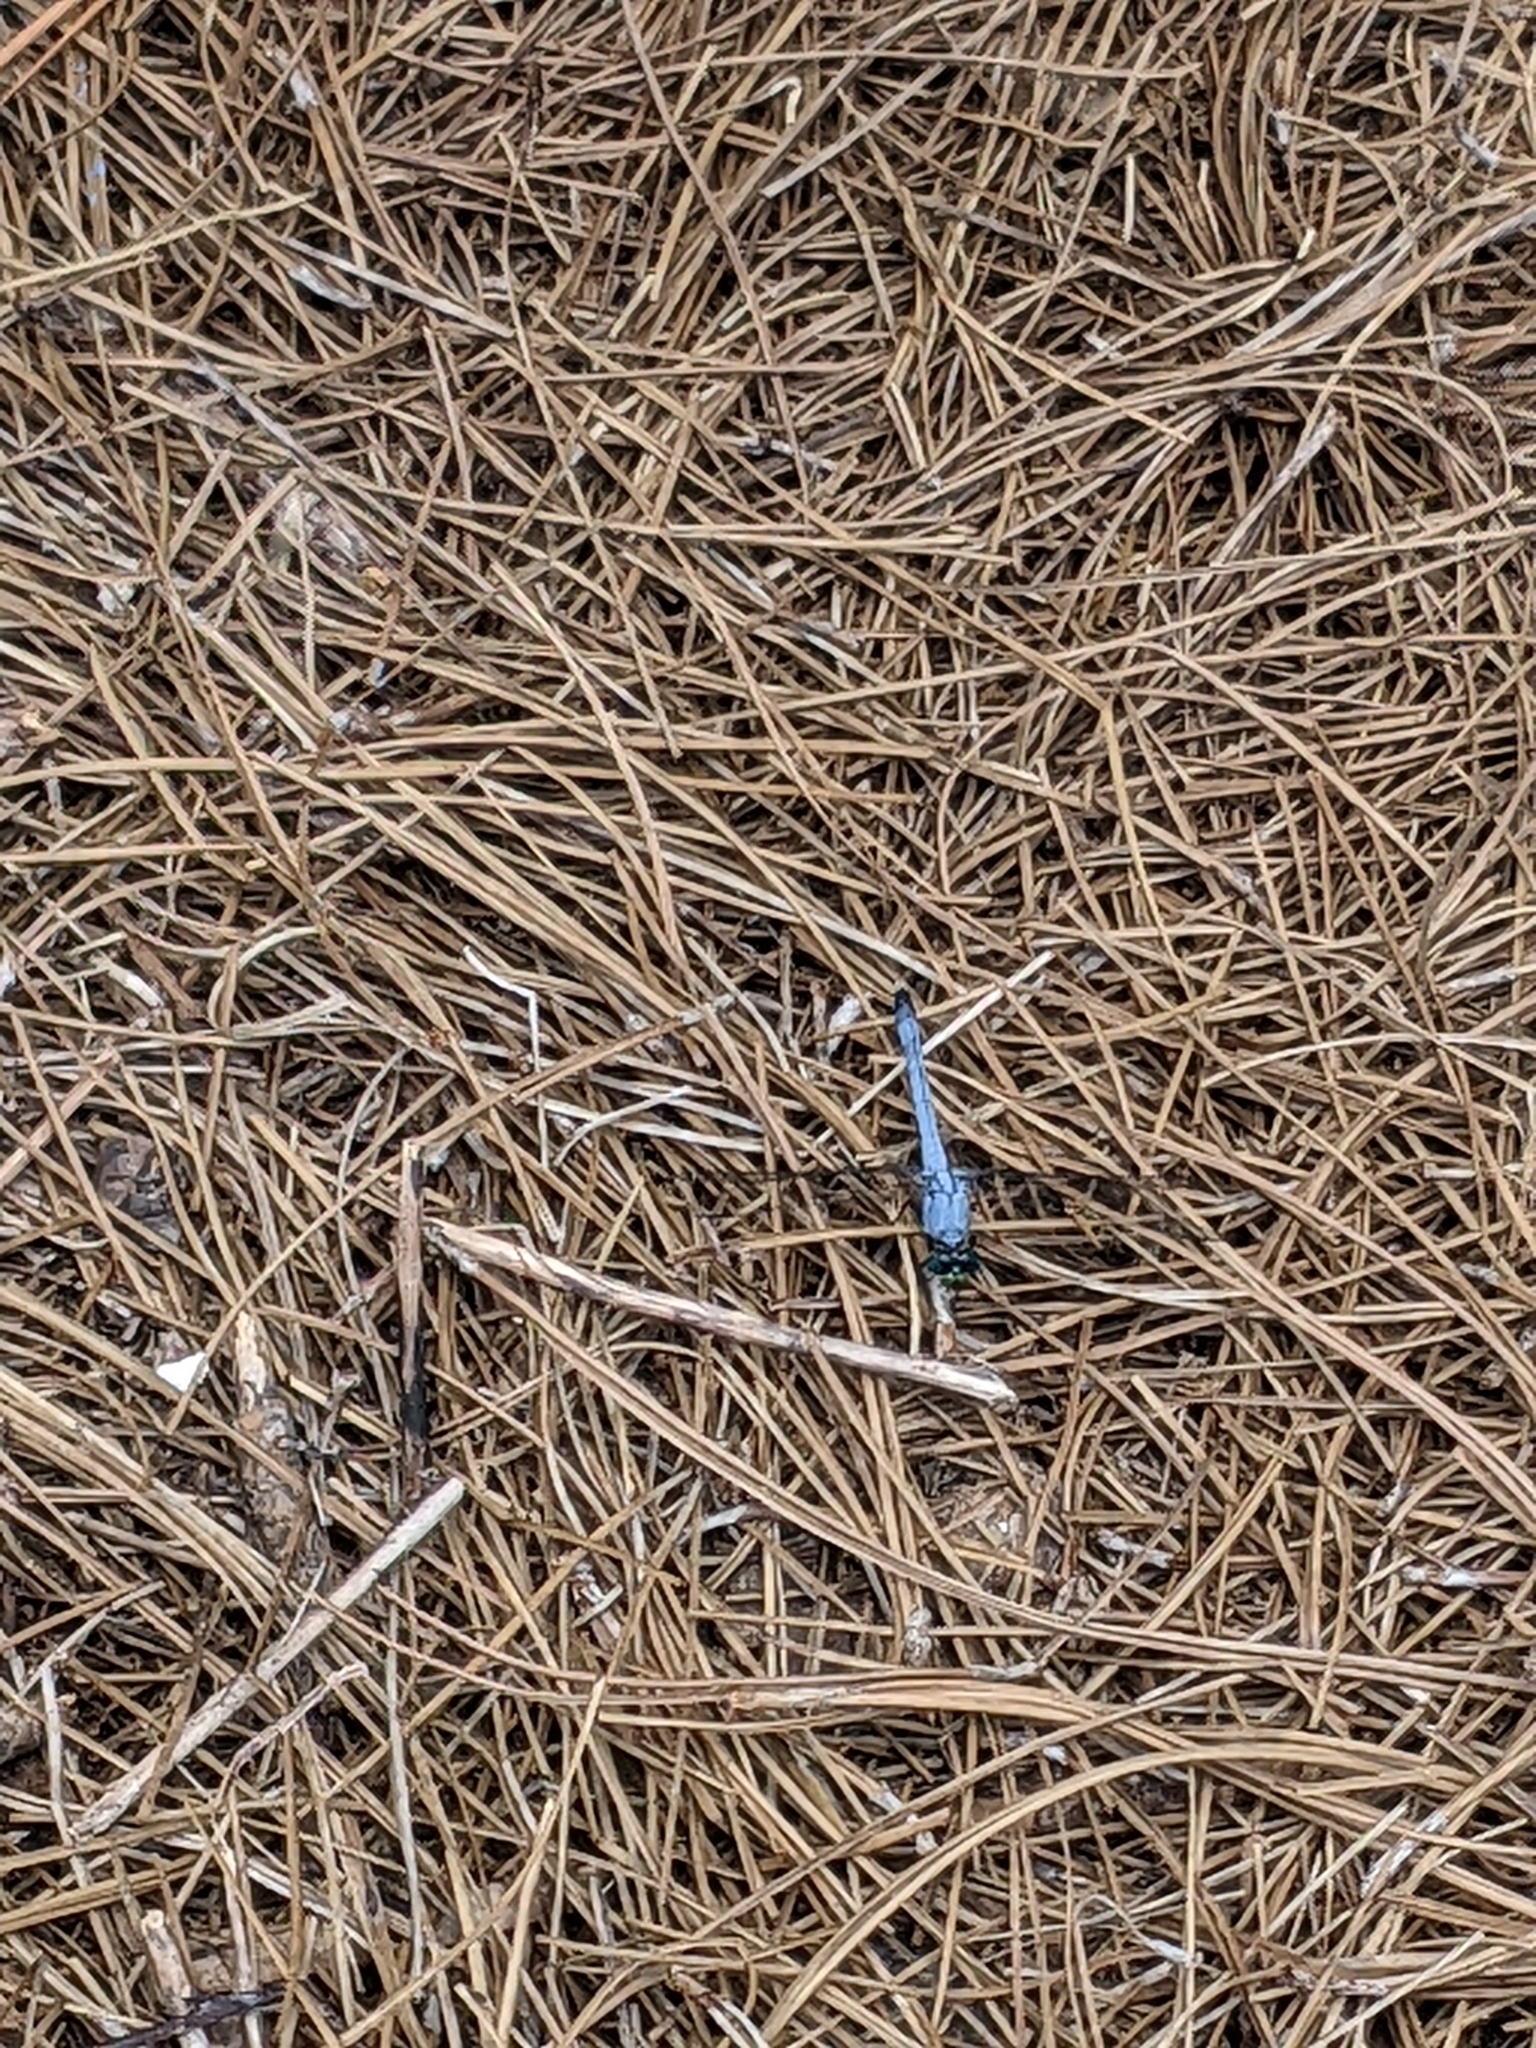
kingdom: Animalia
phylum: Arthropoda
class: Insecta
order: Odonata
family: Libellulidae
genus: Erythemis
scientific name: Erythemis simplicicollis
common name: Eastern pondhawk
